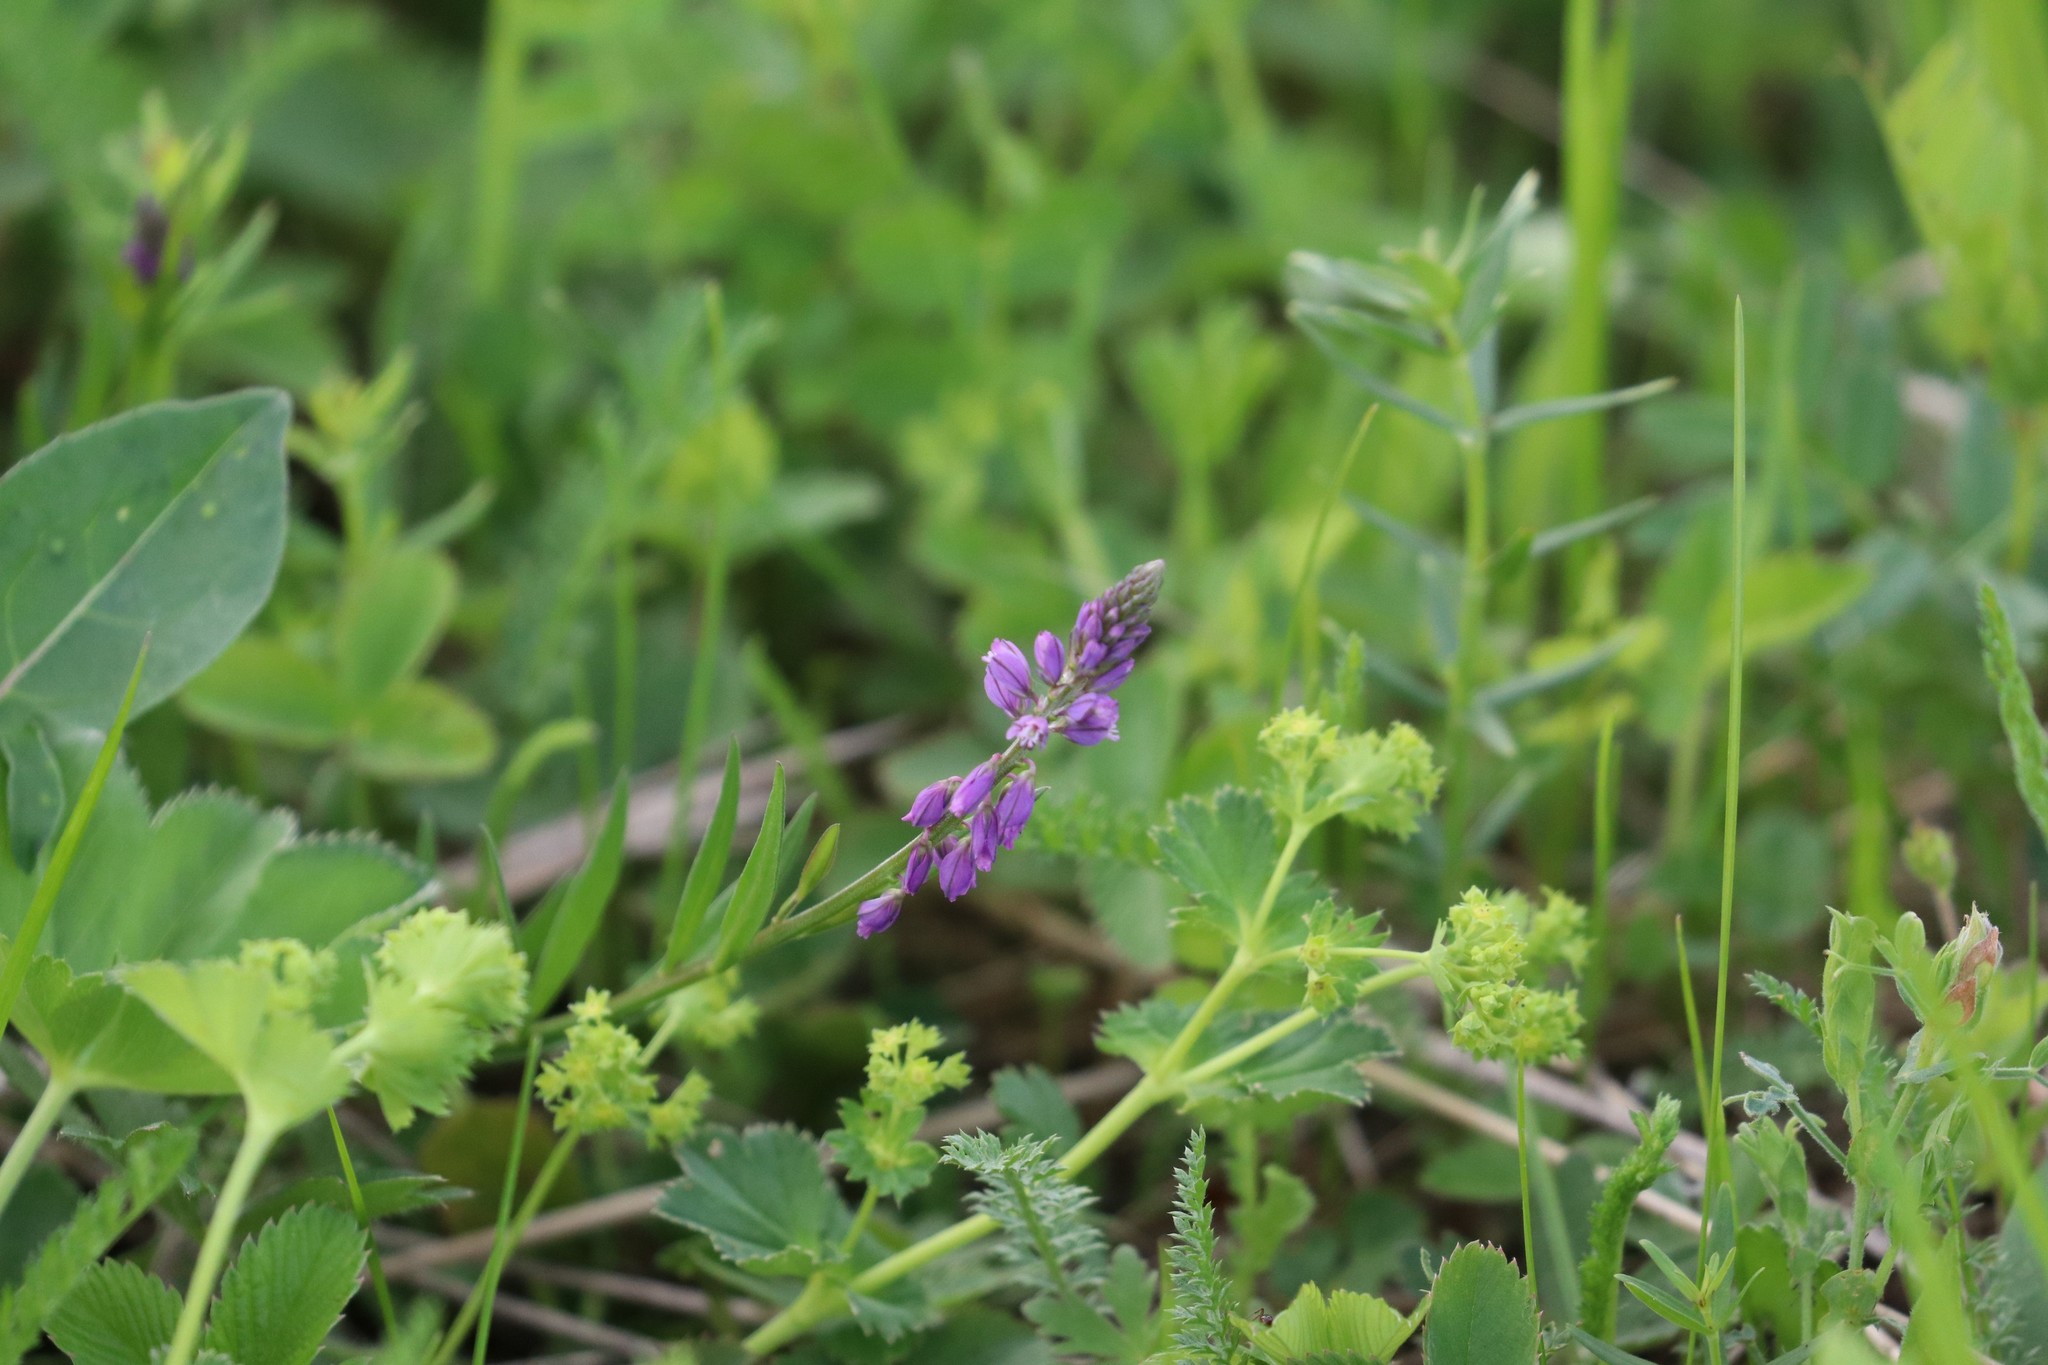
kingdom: Plantae
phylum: Tracheophyta
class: Magnoliopsida
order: Fabales
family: Polygalaceae
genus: Polygala
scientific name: Polygala comosa
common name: Tufted milkwort
